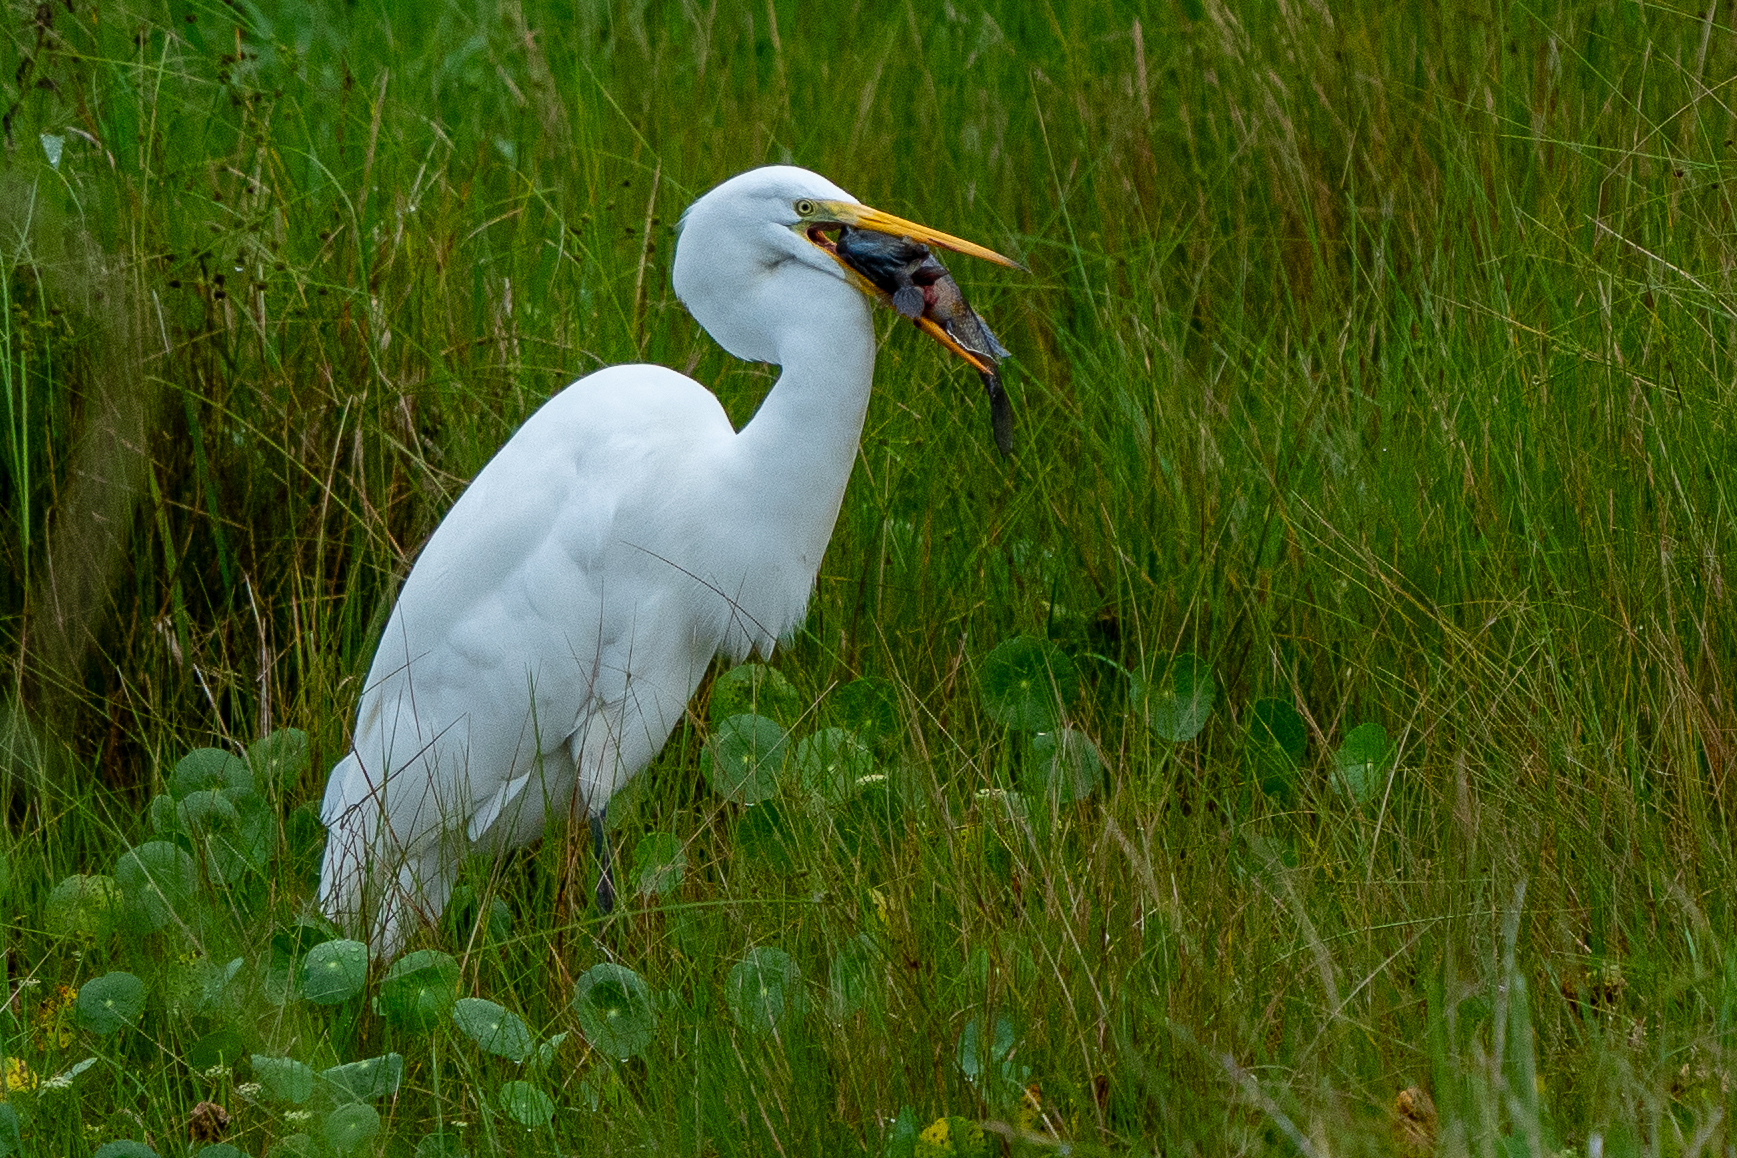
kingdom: Animalia
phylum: Chordata
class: Aves
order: Pelecaniformes
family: Ardeidae
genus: Ardea
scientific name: Ardea alba
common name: Great egret
